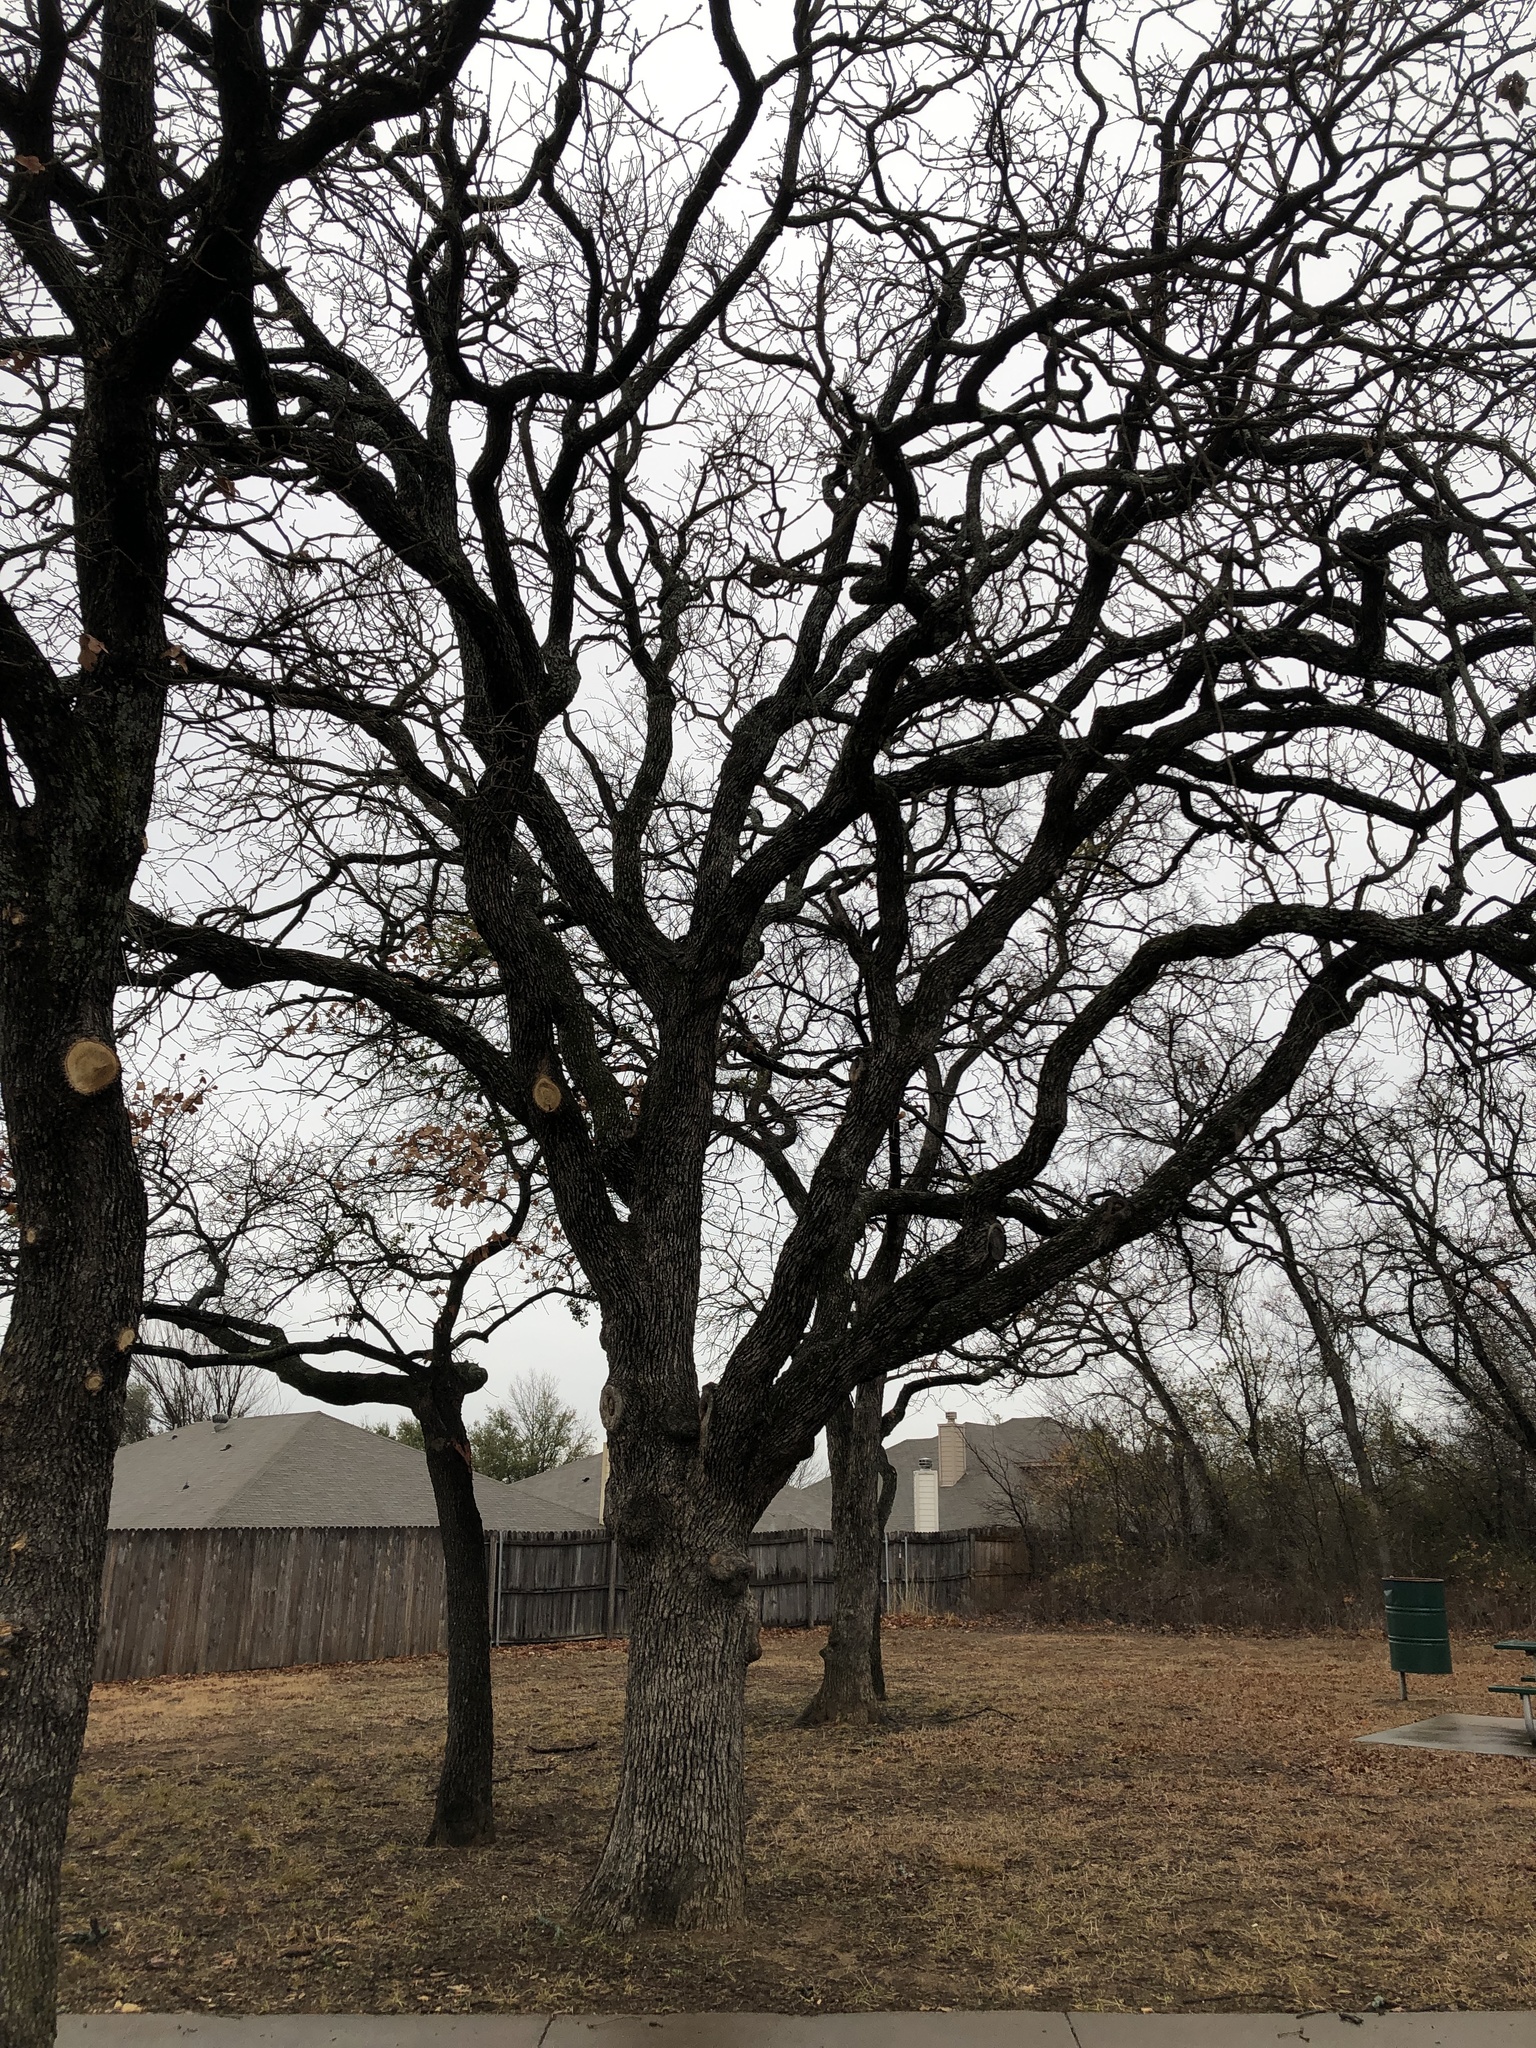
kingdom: Plantae
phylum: Tracheophyta
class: Magnoliopsida
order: Fagales
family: Fagaceae
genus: Quercus
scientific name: Quercus stellata
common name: Post oak
